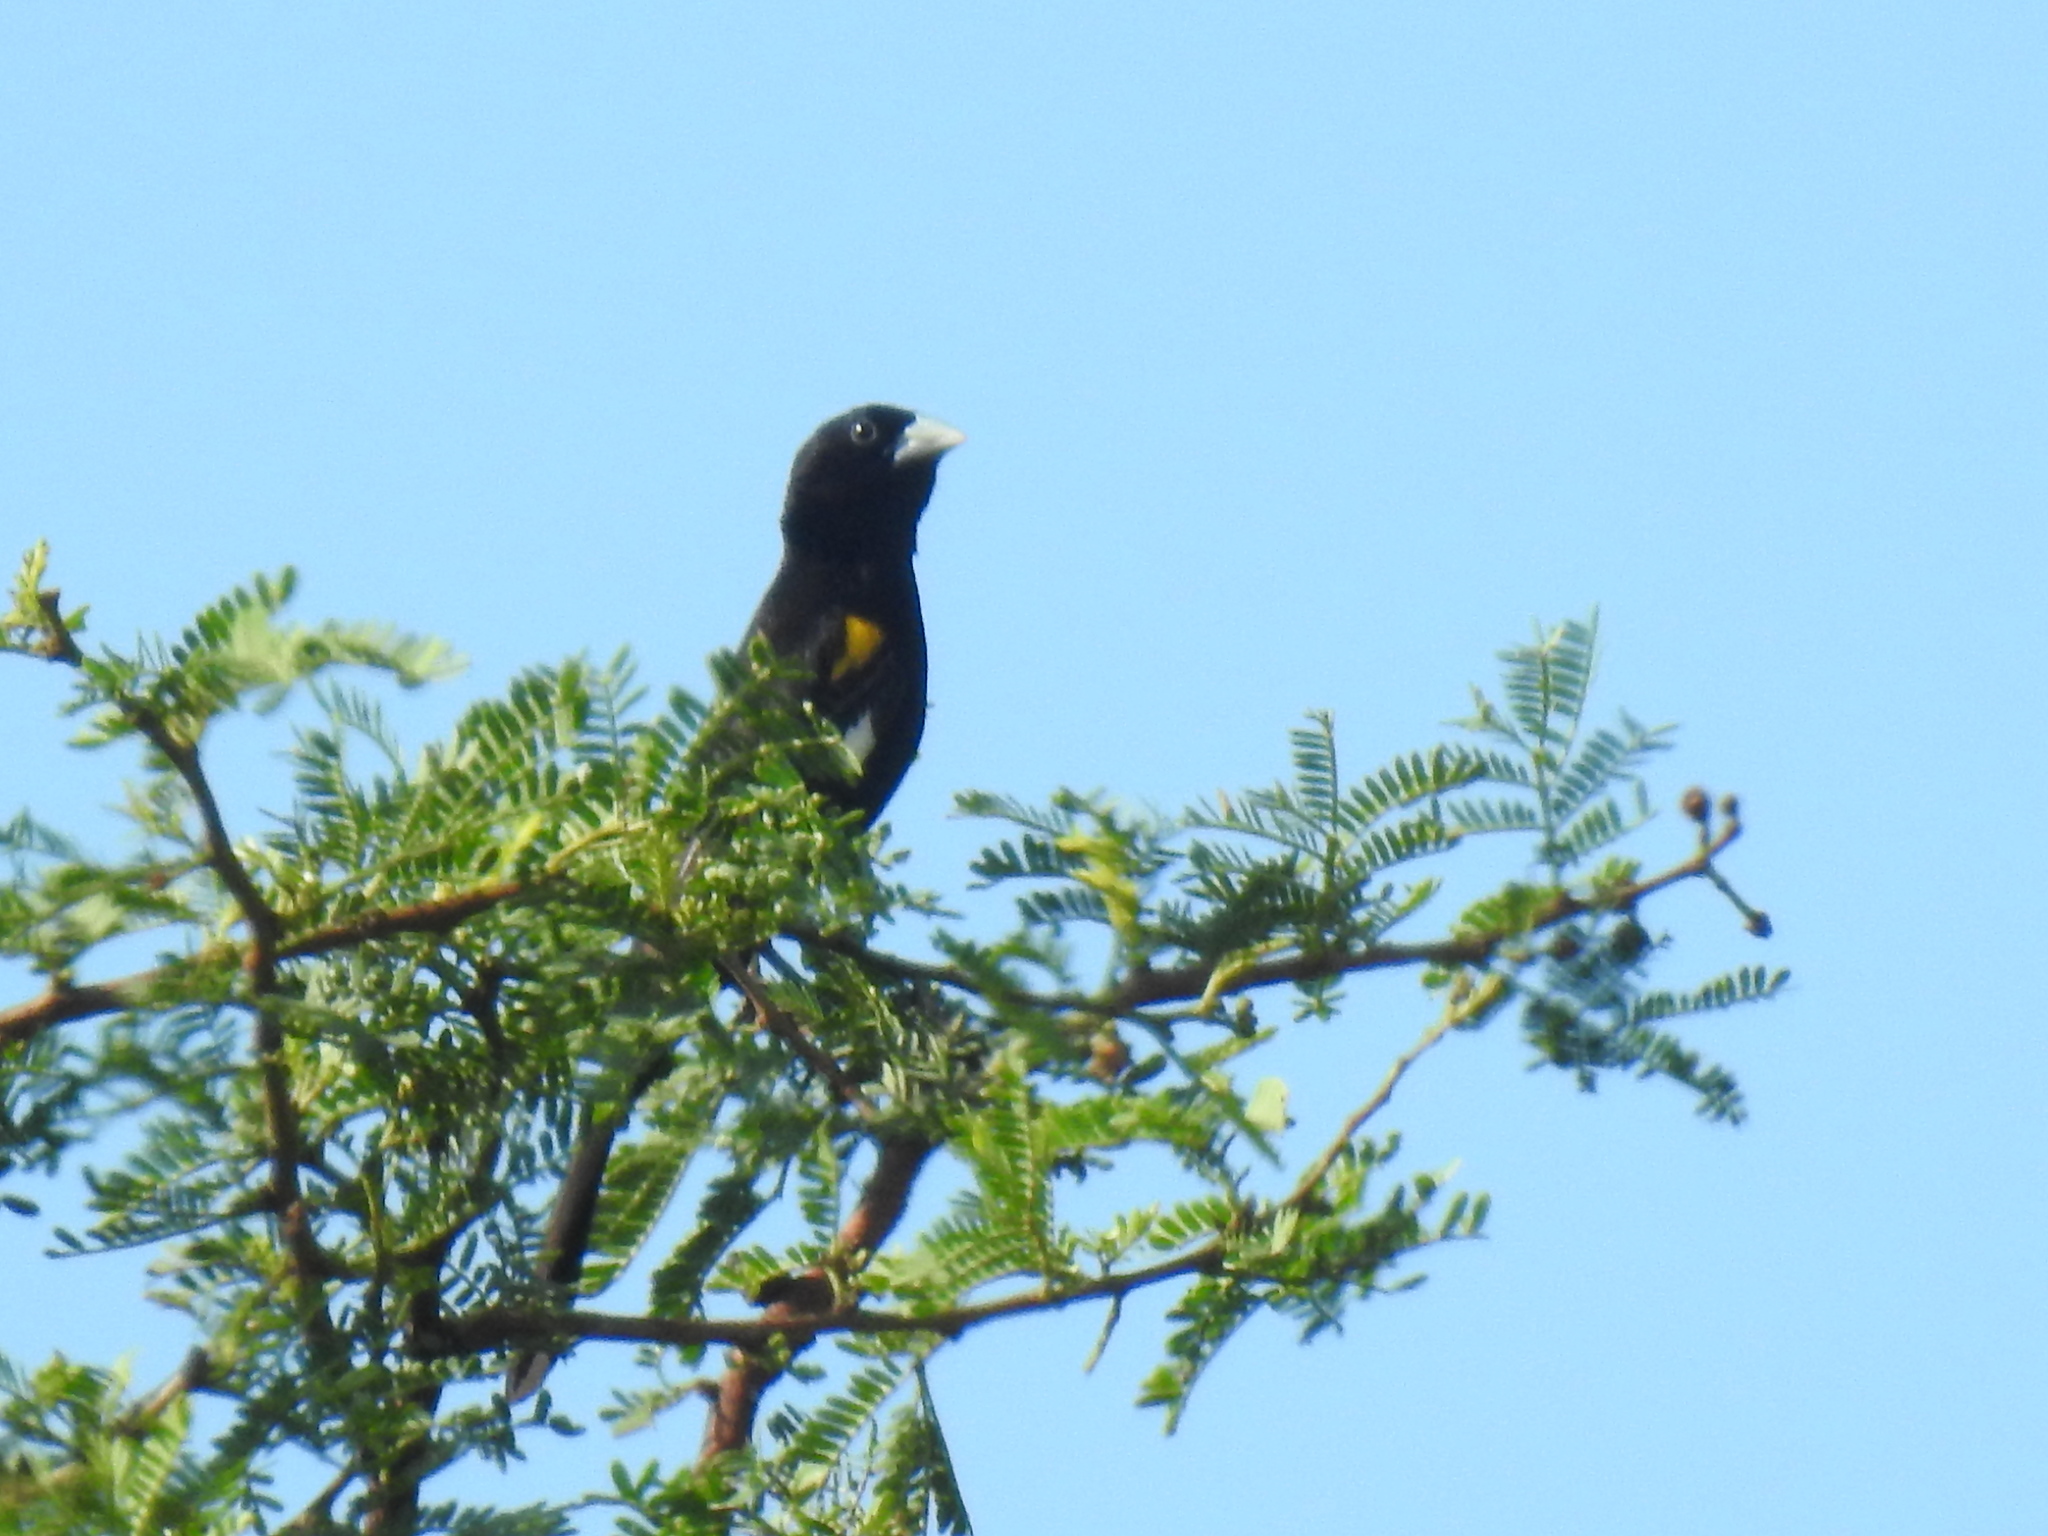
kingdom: Animalia
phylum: Chordata
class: Aves
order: Passeriformes
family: Ploceidae
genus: Euplectes
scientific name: Euplectes albonotatus
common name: White-winged widowbird
